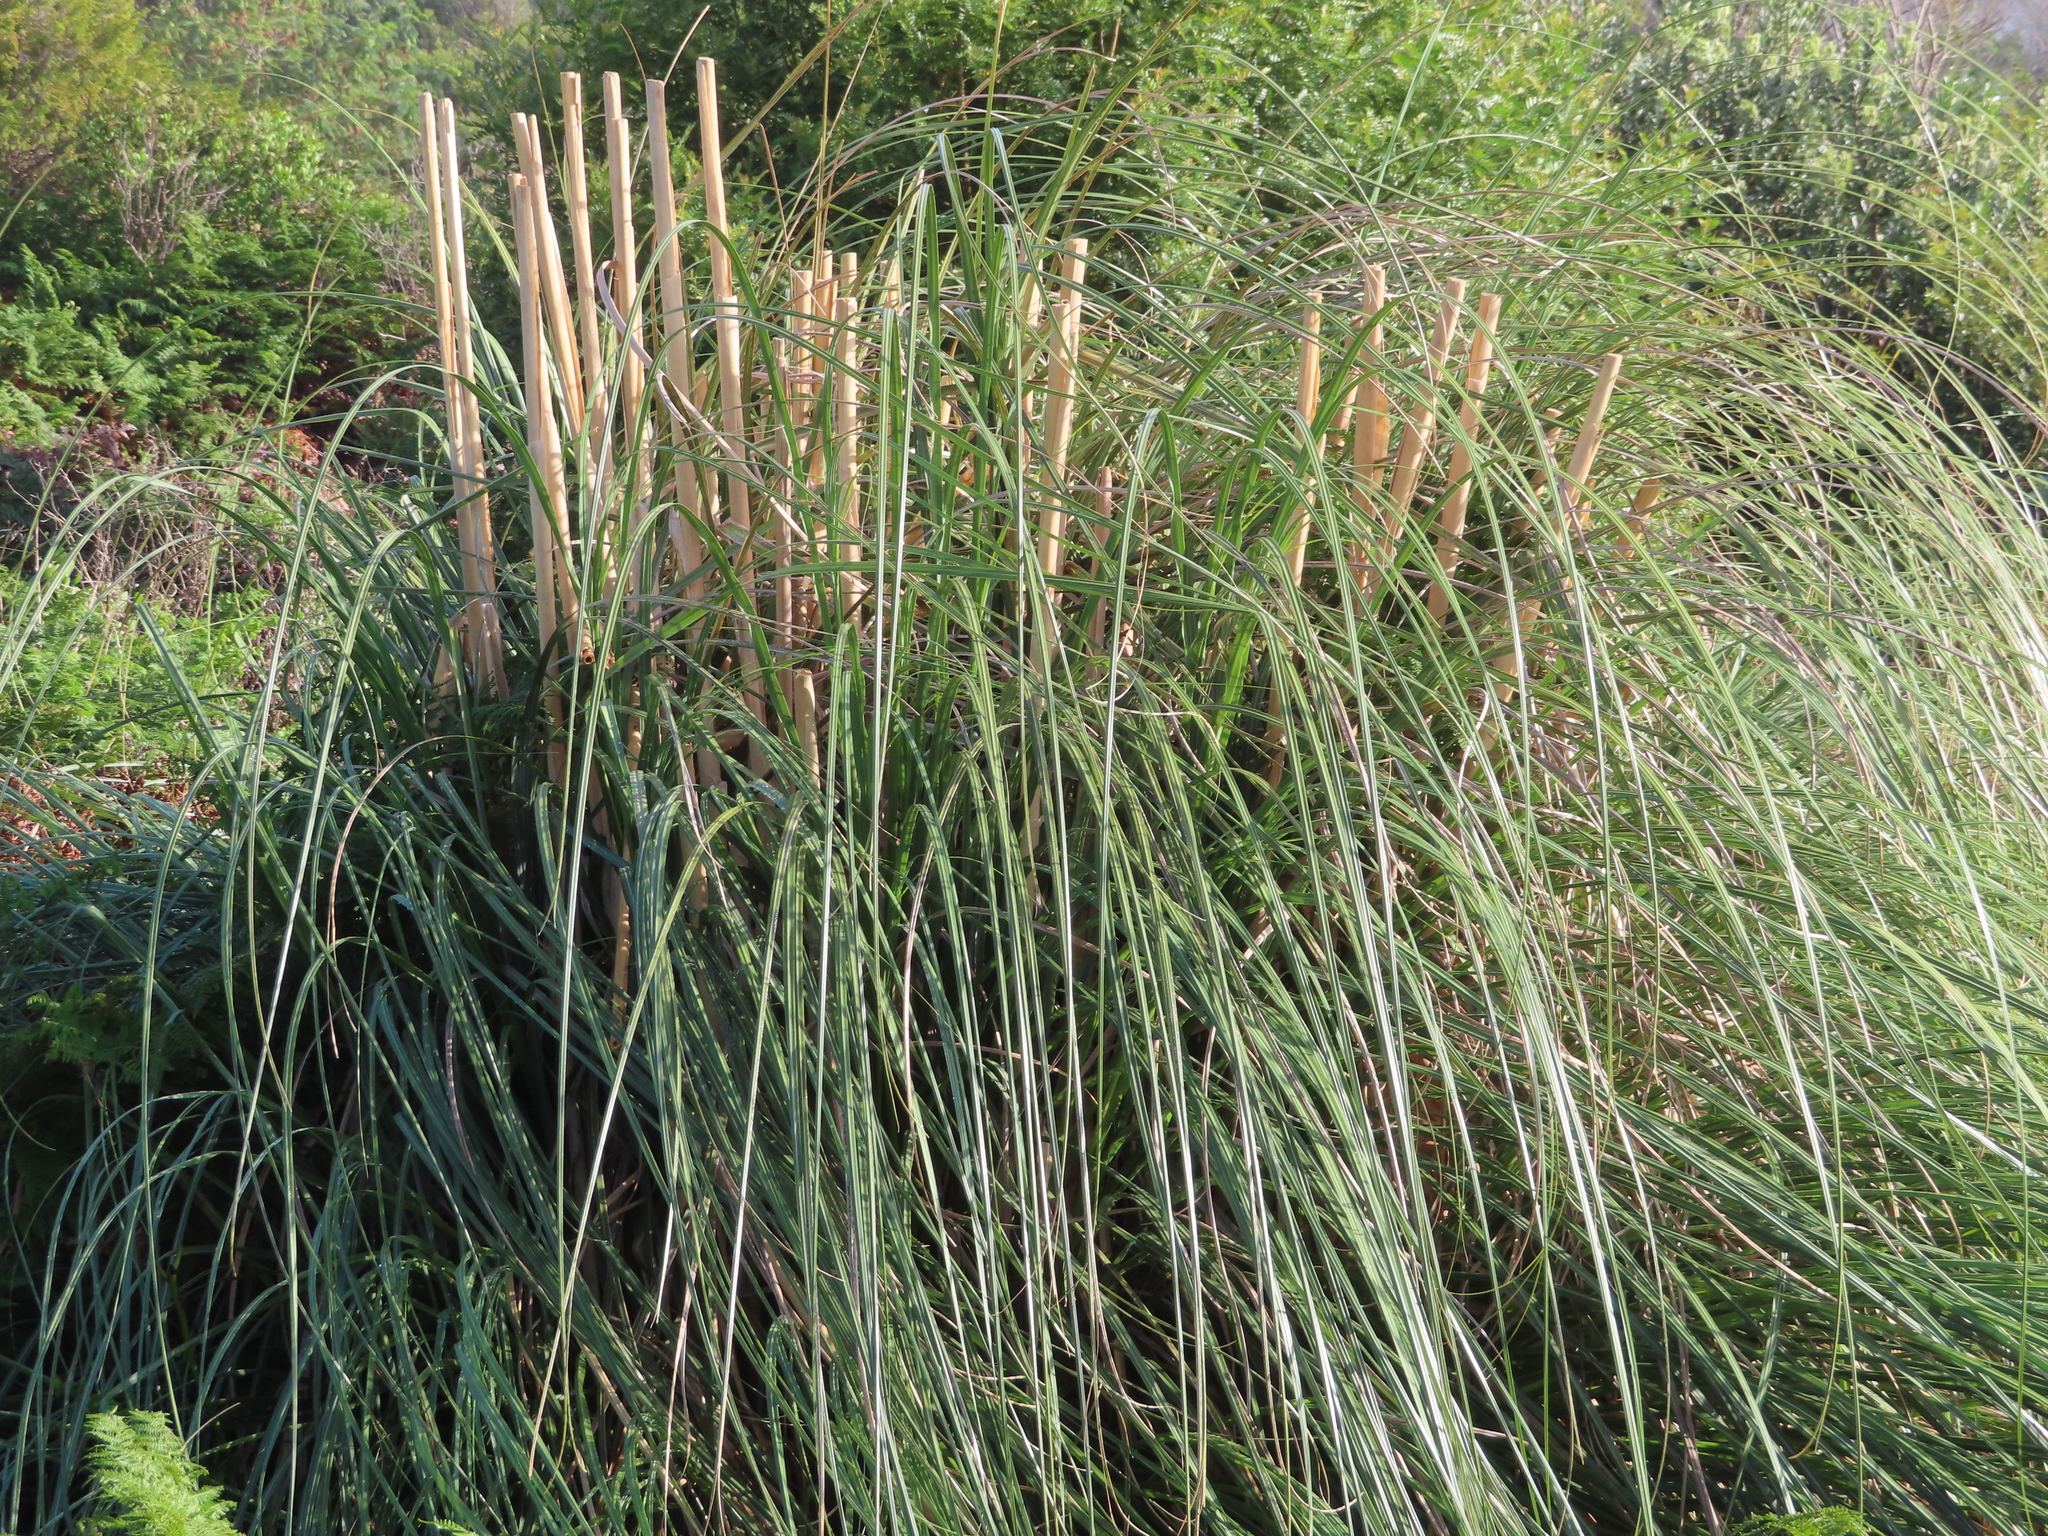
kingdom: Plantae
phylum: Tracheophyta
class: Liliopsida
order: Poales
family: Poaceae
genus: Cortaderia
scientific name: Cortaderia selloana
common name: Uruguayan pampas grass
